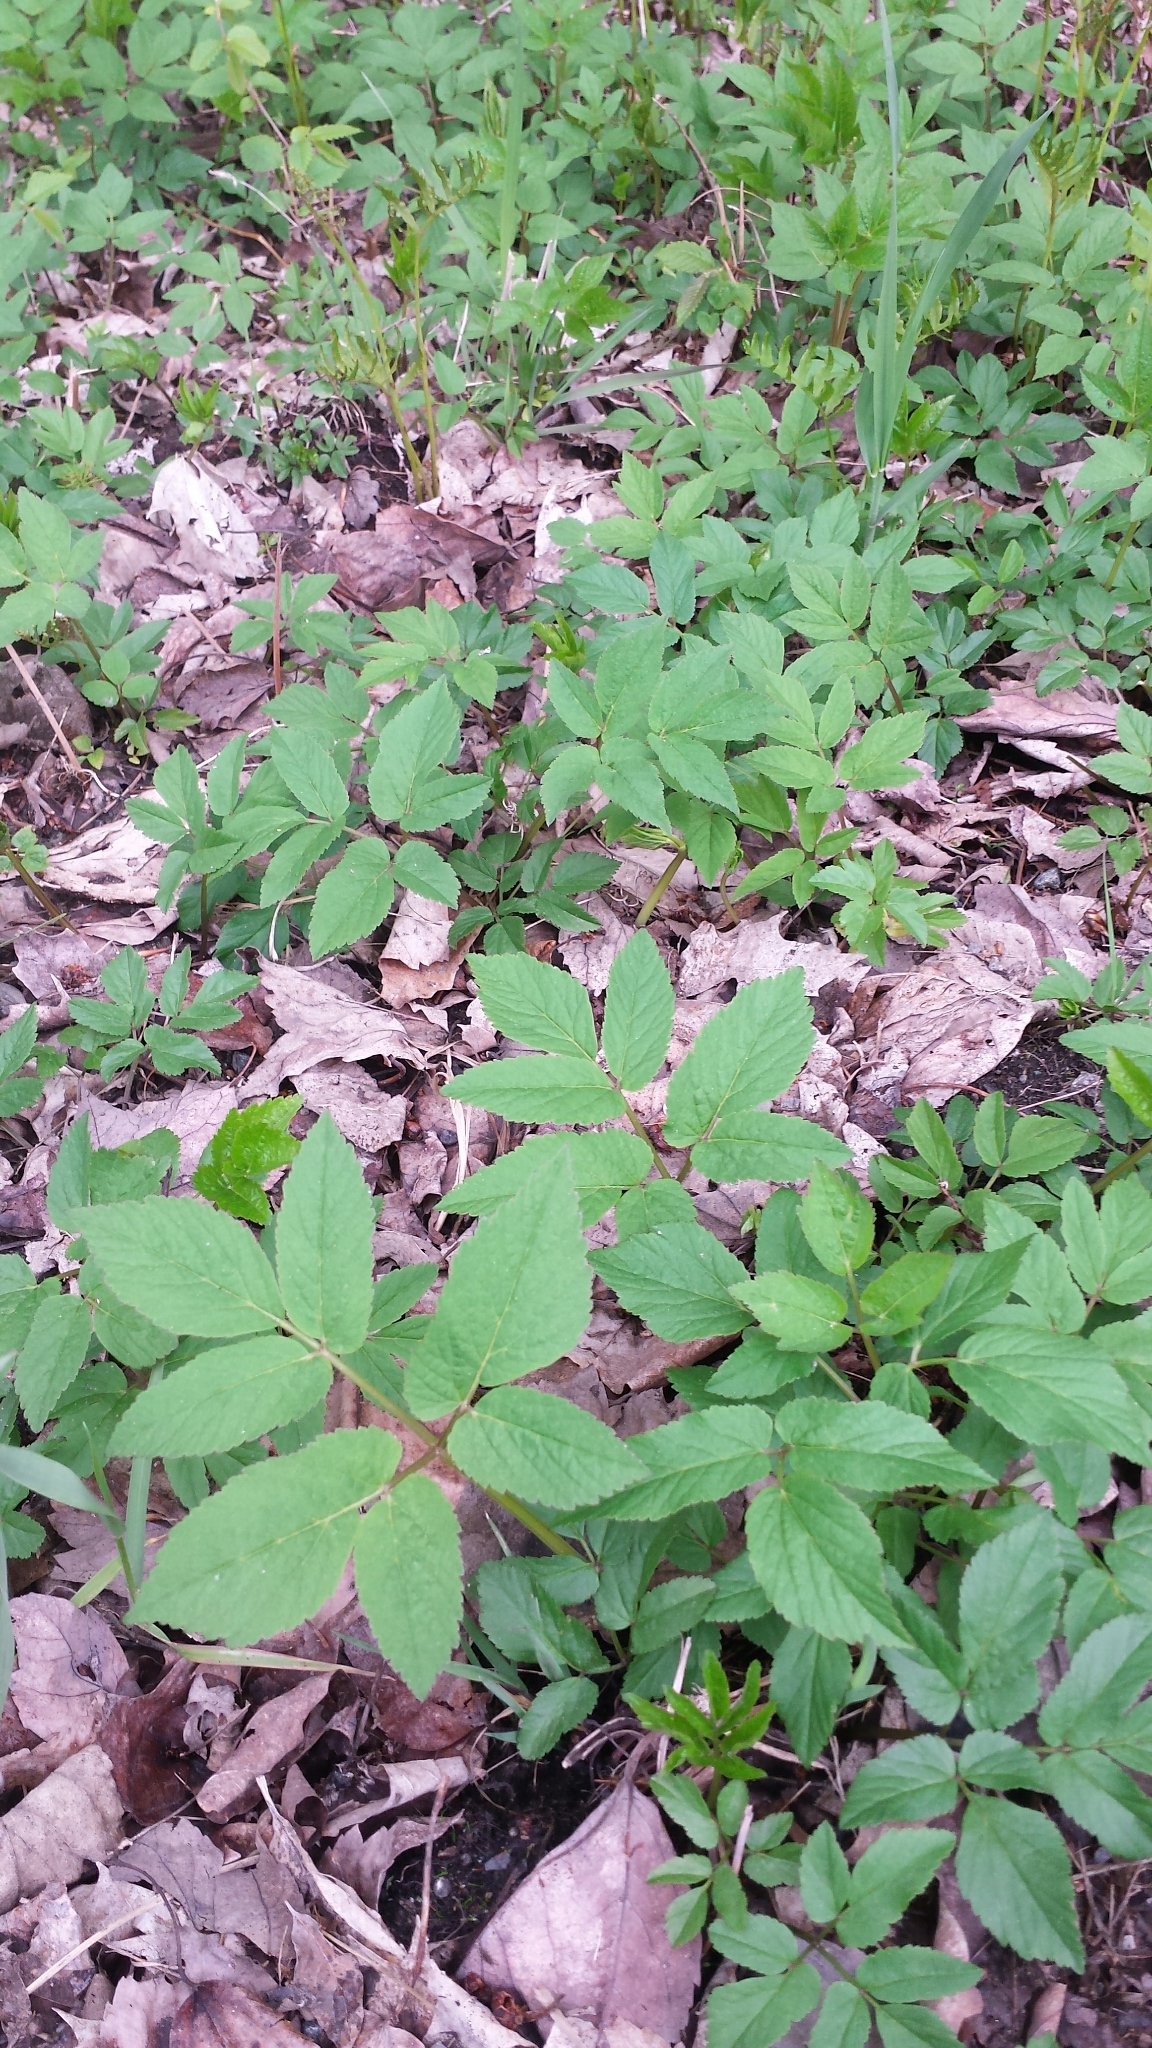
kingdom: Plantae
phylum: Tracheophyta
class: Magnoliopsida
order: Apiales
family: Apiaceae
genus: Aegopodium
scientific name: Aegopodium podagraria
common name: Ground-elder
